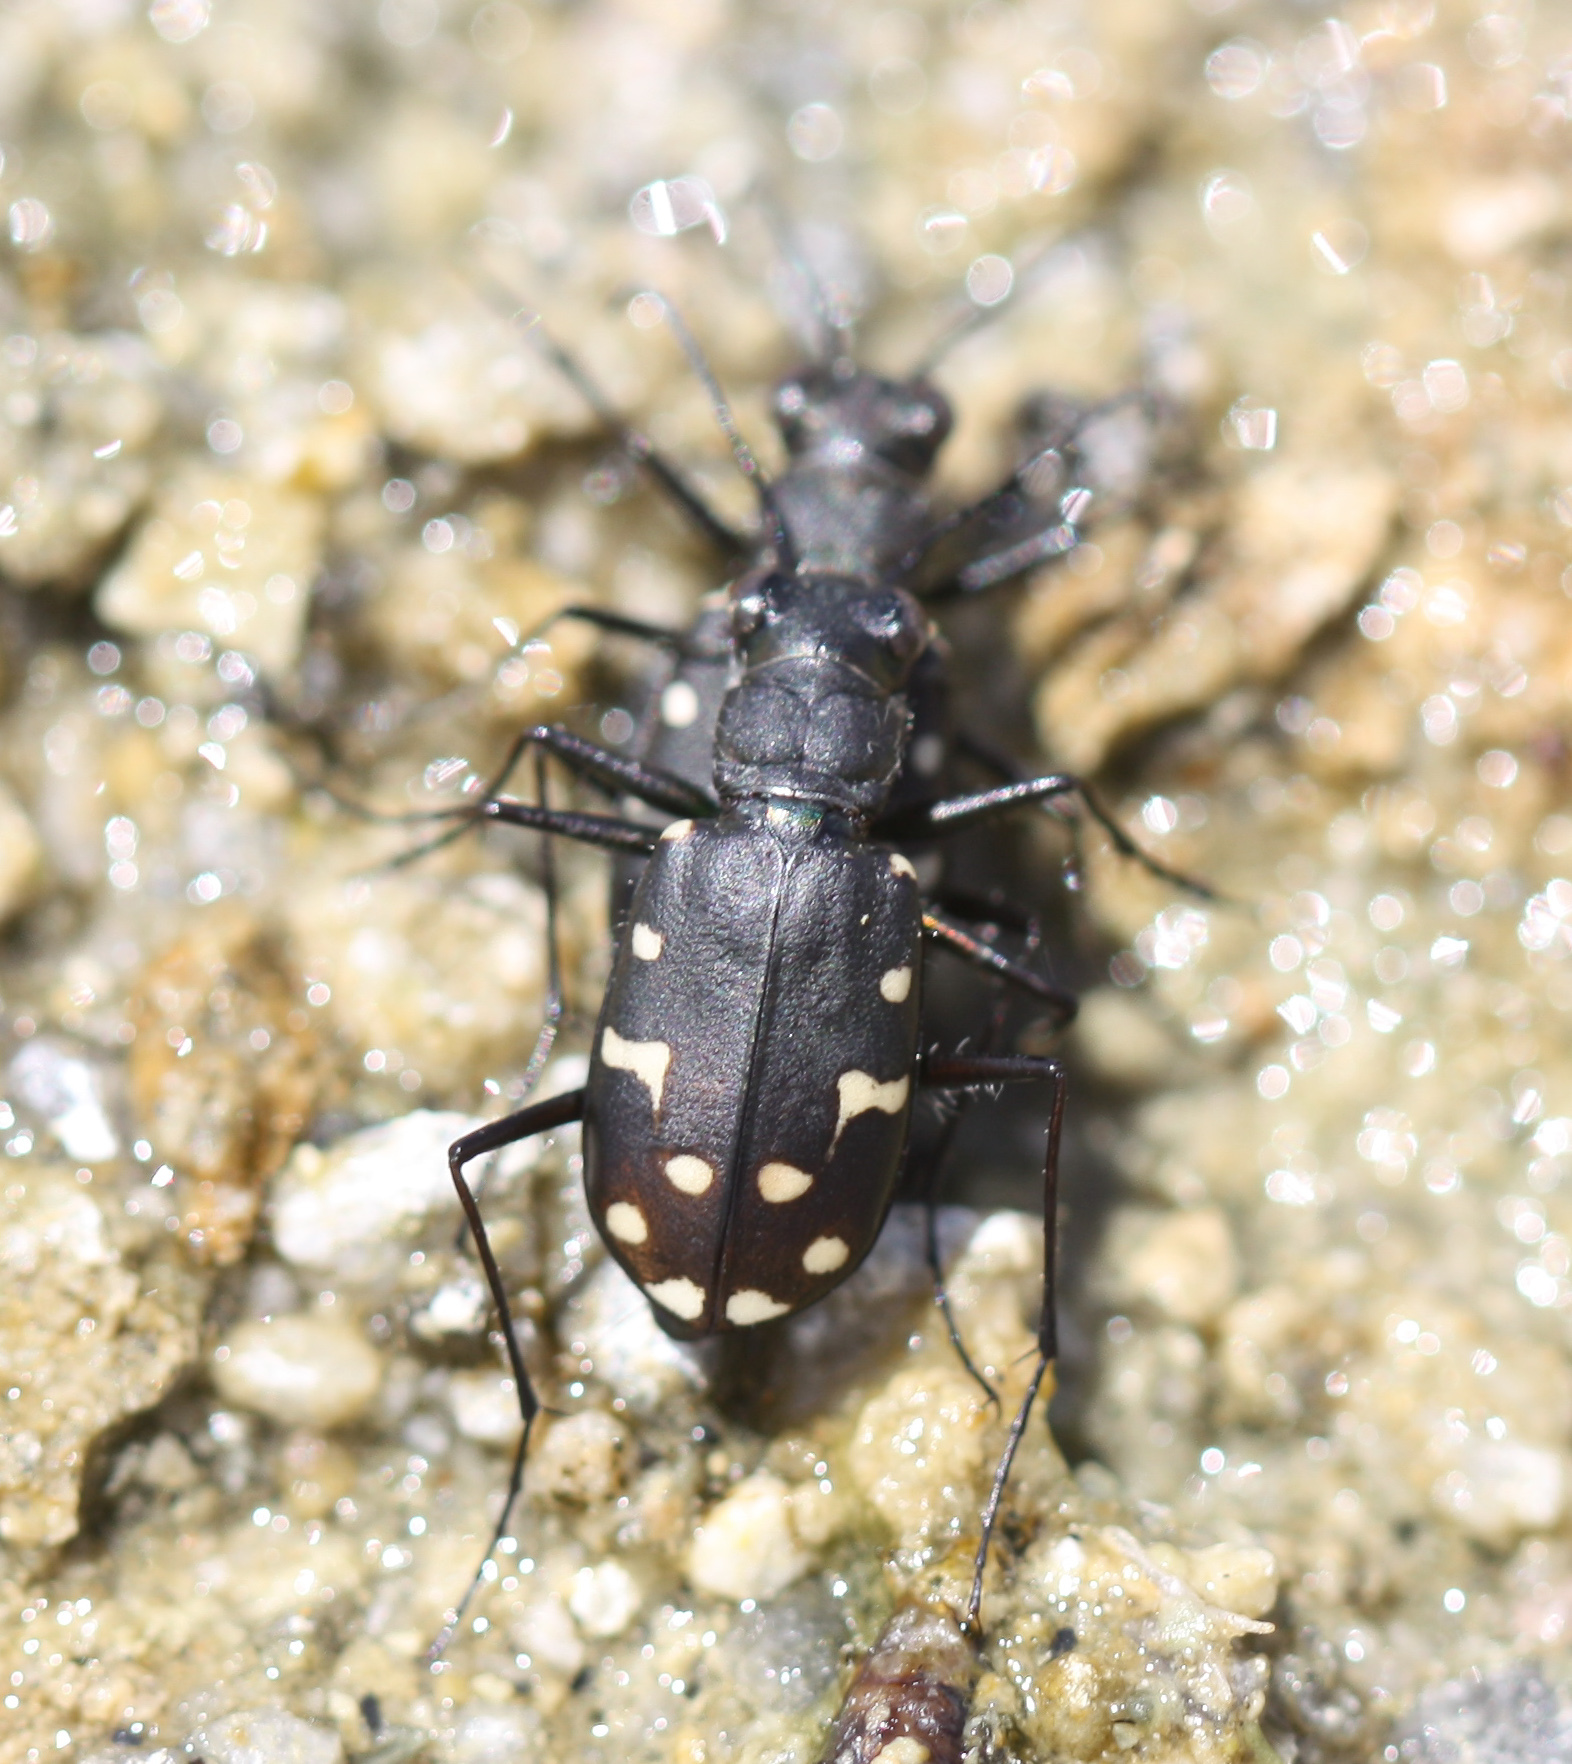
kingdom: Animalia
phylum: Arthropoda
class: Insecta
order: Coleoptera
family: Carabidae
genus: Cicindela
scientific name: Cicindela oregona
